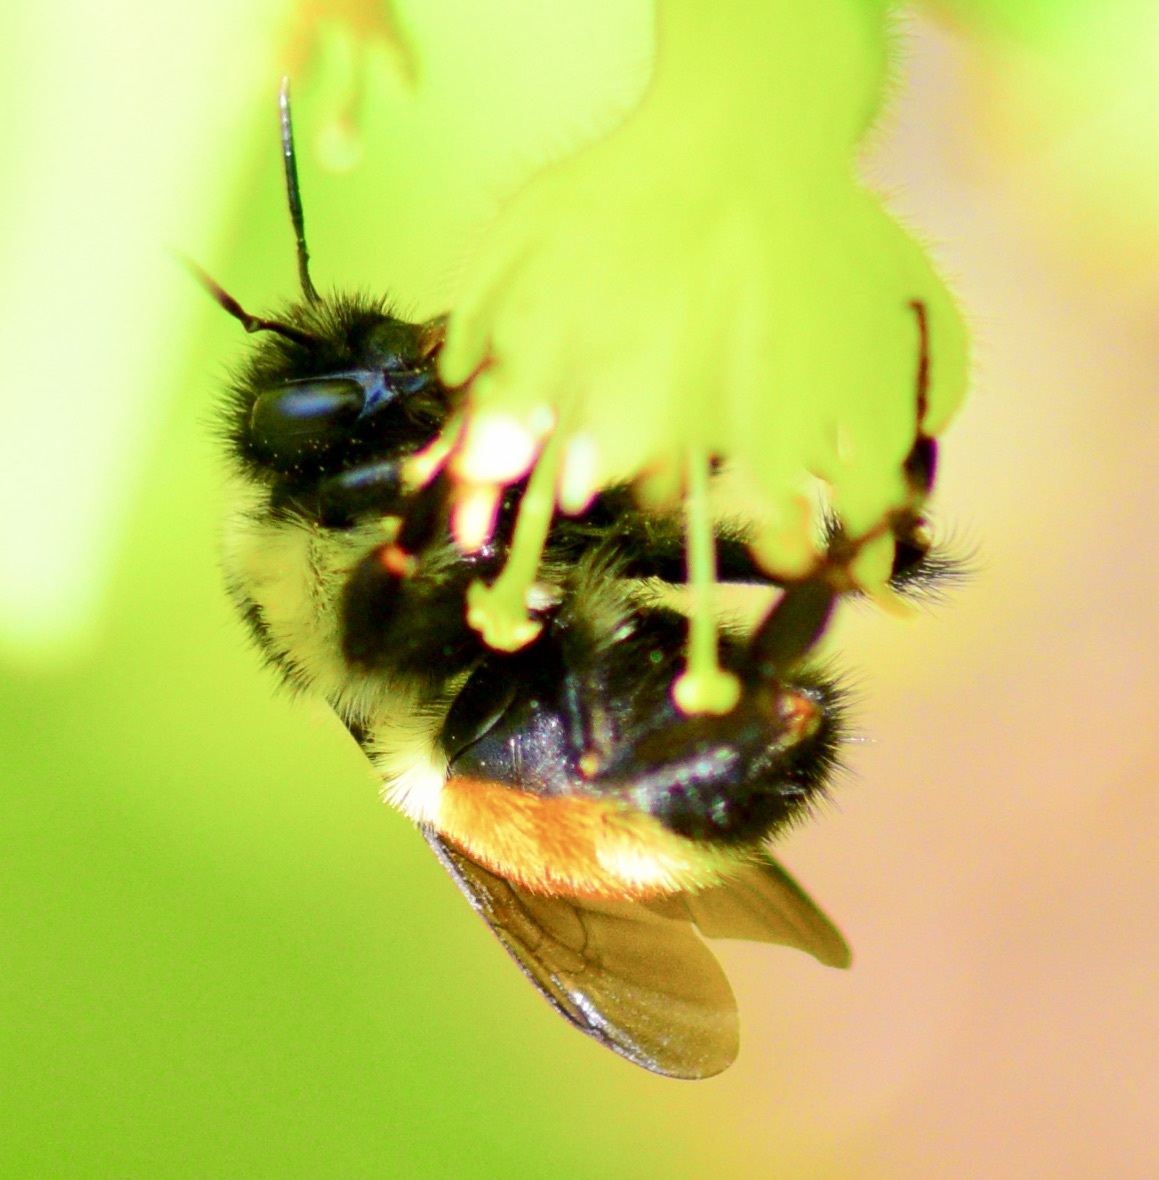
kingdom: Animalia
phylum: Arthropoda
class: Insecta
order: Hymenoptera
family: Apidae
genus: Bombus
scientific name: Bombus ternarius
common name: Tri-colored bumble bee
